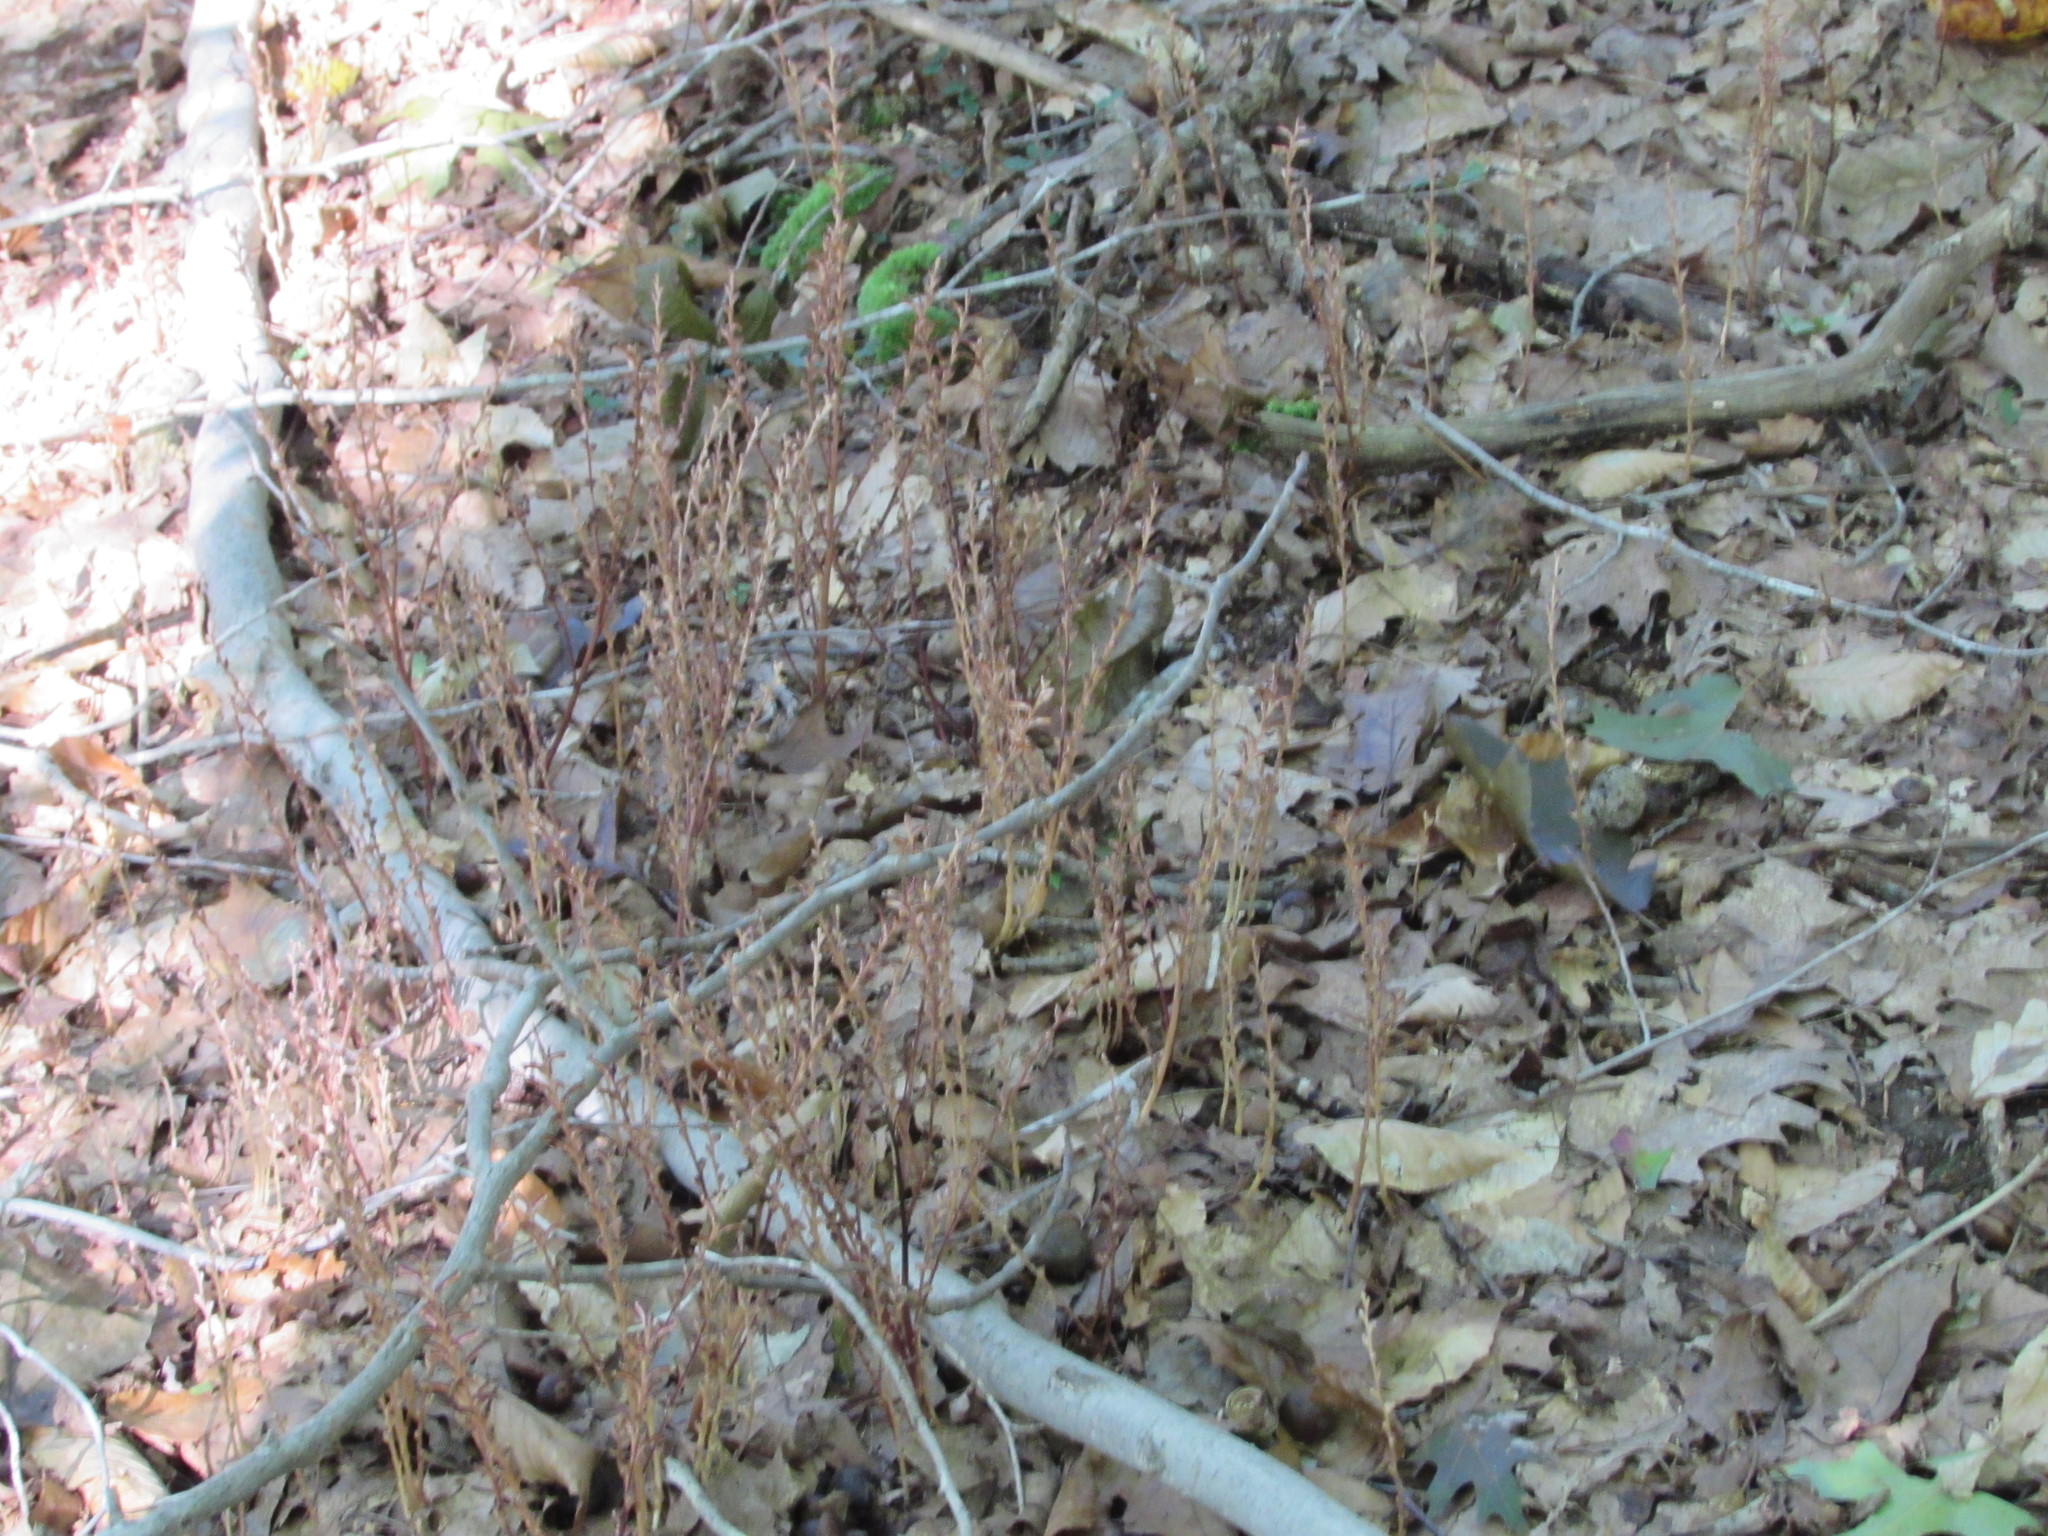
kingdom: Plantae
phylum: Tracheophyta
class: Magnoliopsida
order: Lamiales
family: Orobanchaceae
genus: Epifagus
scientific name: Epifagus virginiana
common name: Beechdrops
